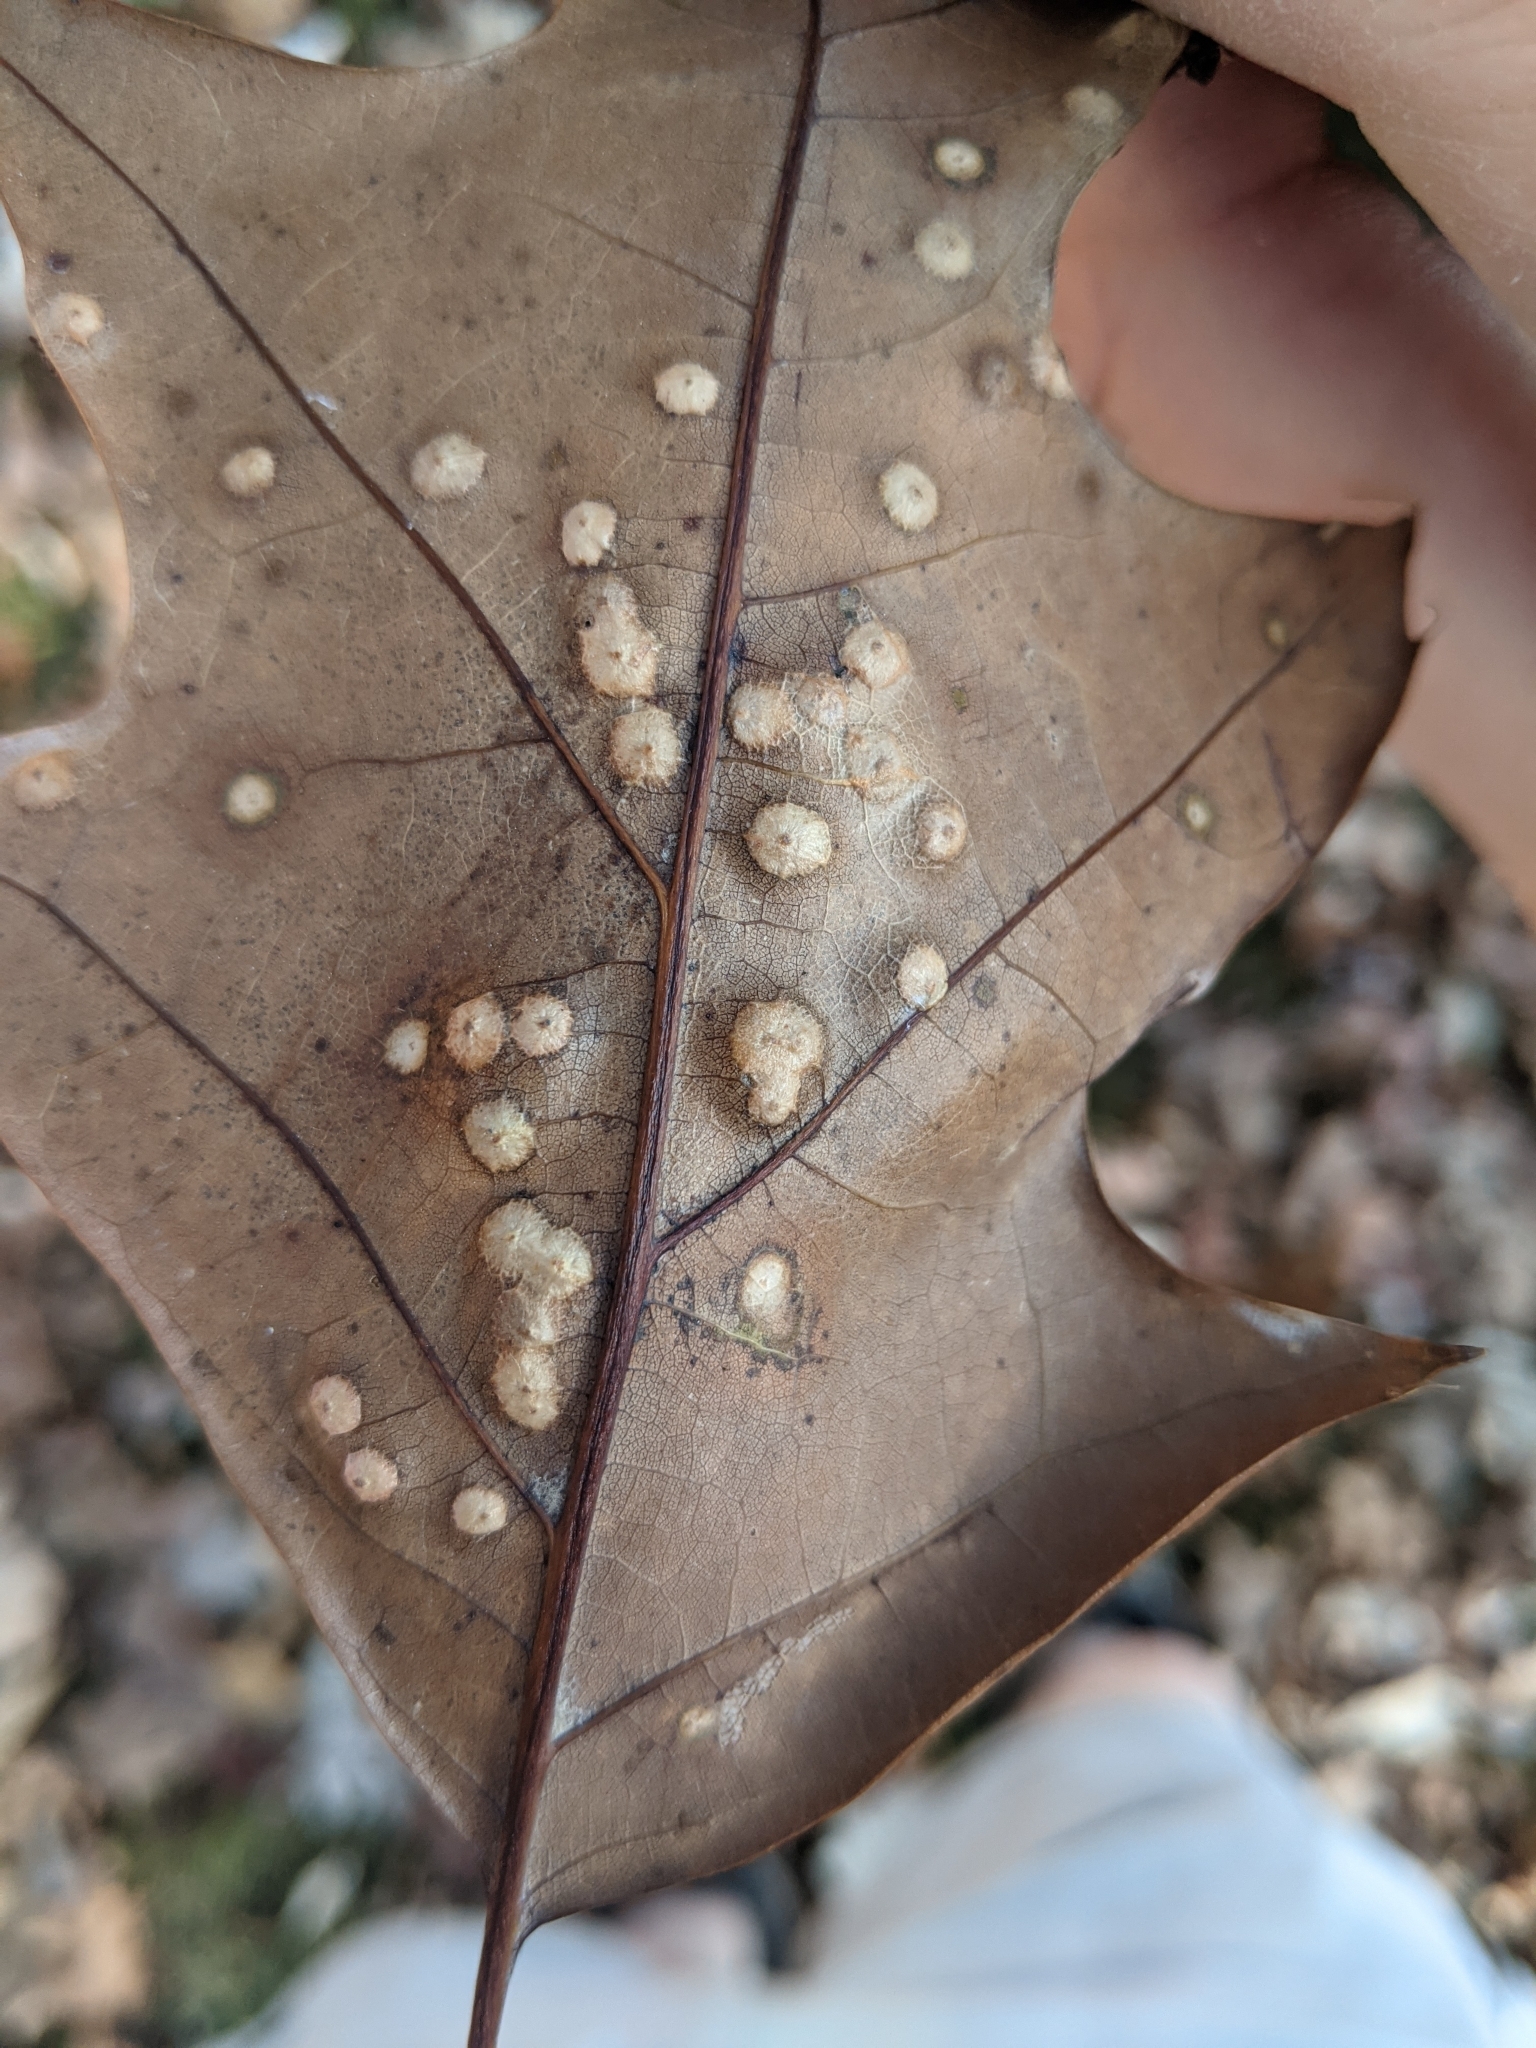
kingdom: Animalia
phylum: Arthropoda
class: Insecta
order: Diptera
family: Cecidomyiidae
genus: Polystepha
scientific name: Polystepha pilulae
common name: Oak leaf gall midge
